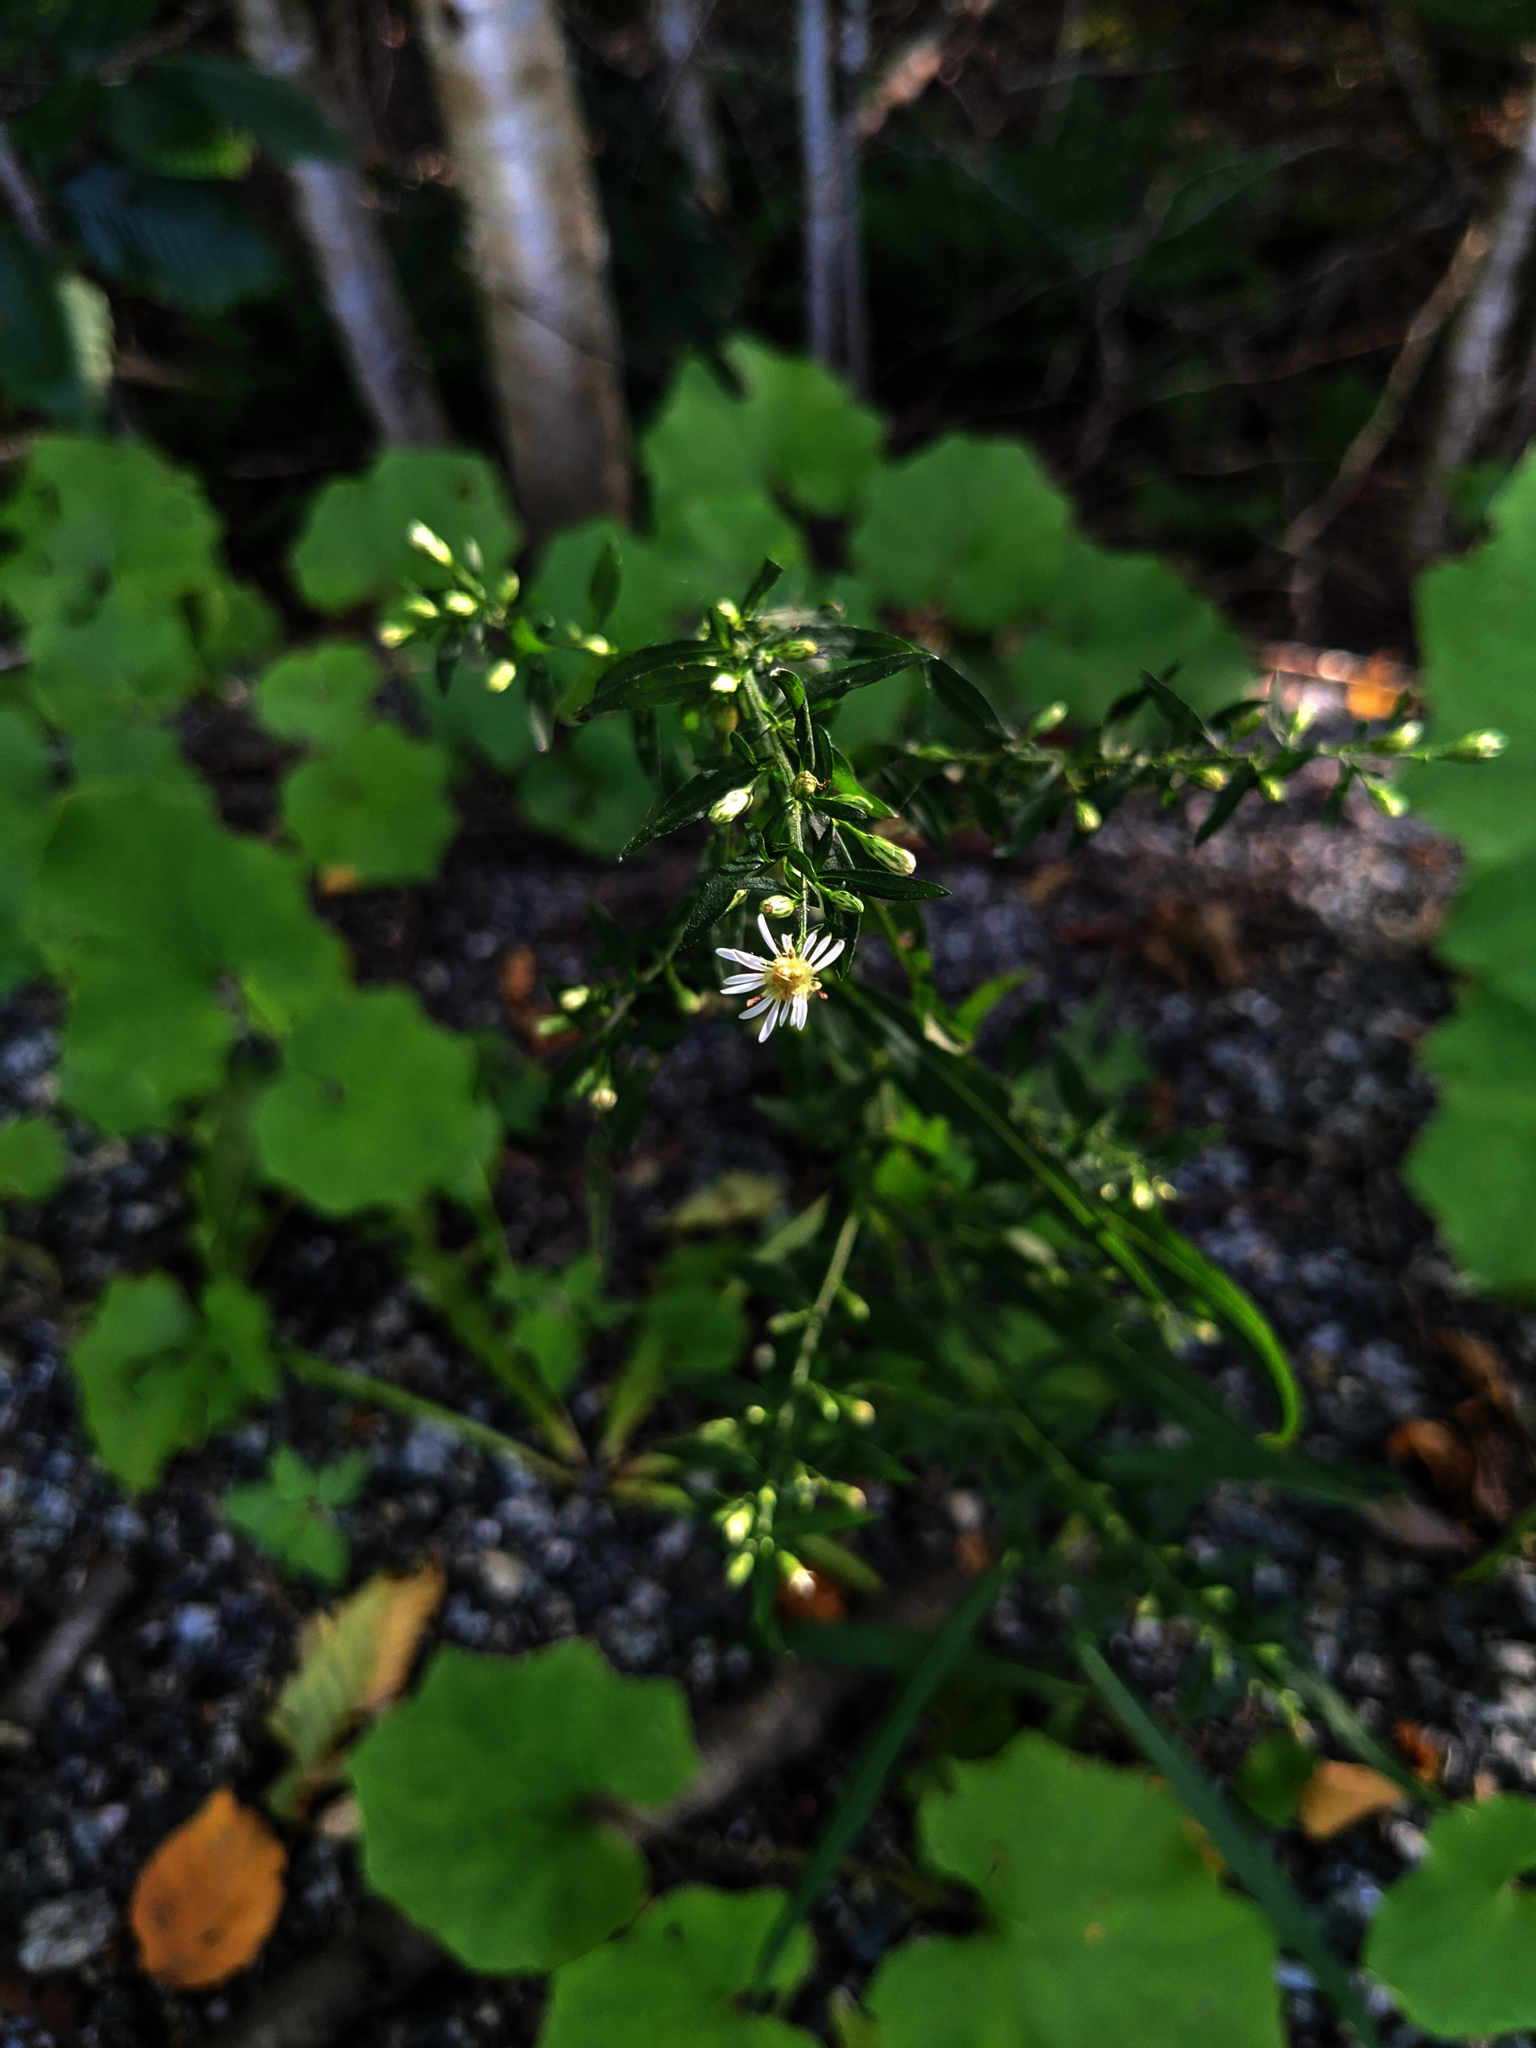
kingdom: Plantae
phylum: Tracheophyta
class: Magnoliopsida
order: Asterales
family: Asteraceae
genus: Symphyotrichum
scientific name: Symphyotrichum lateriflorum
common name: Calico aster
